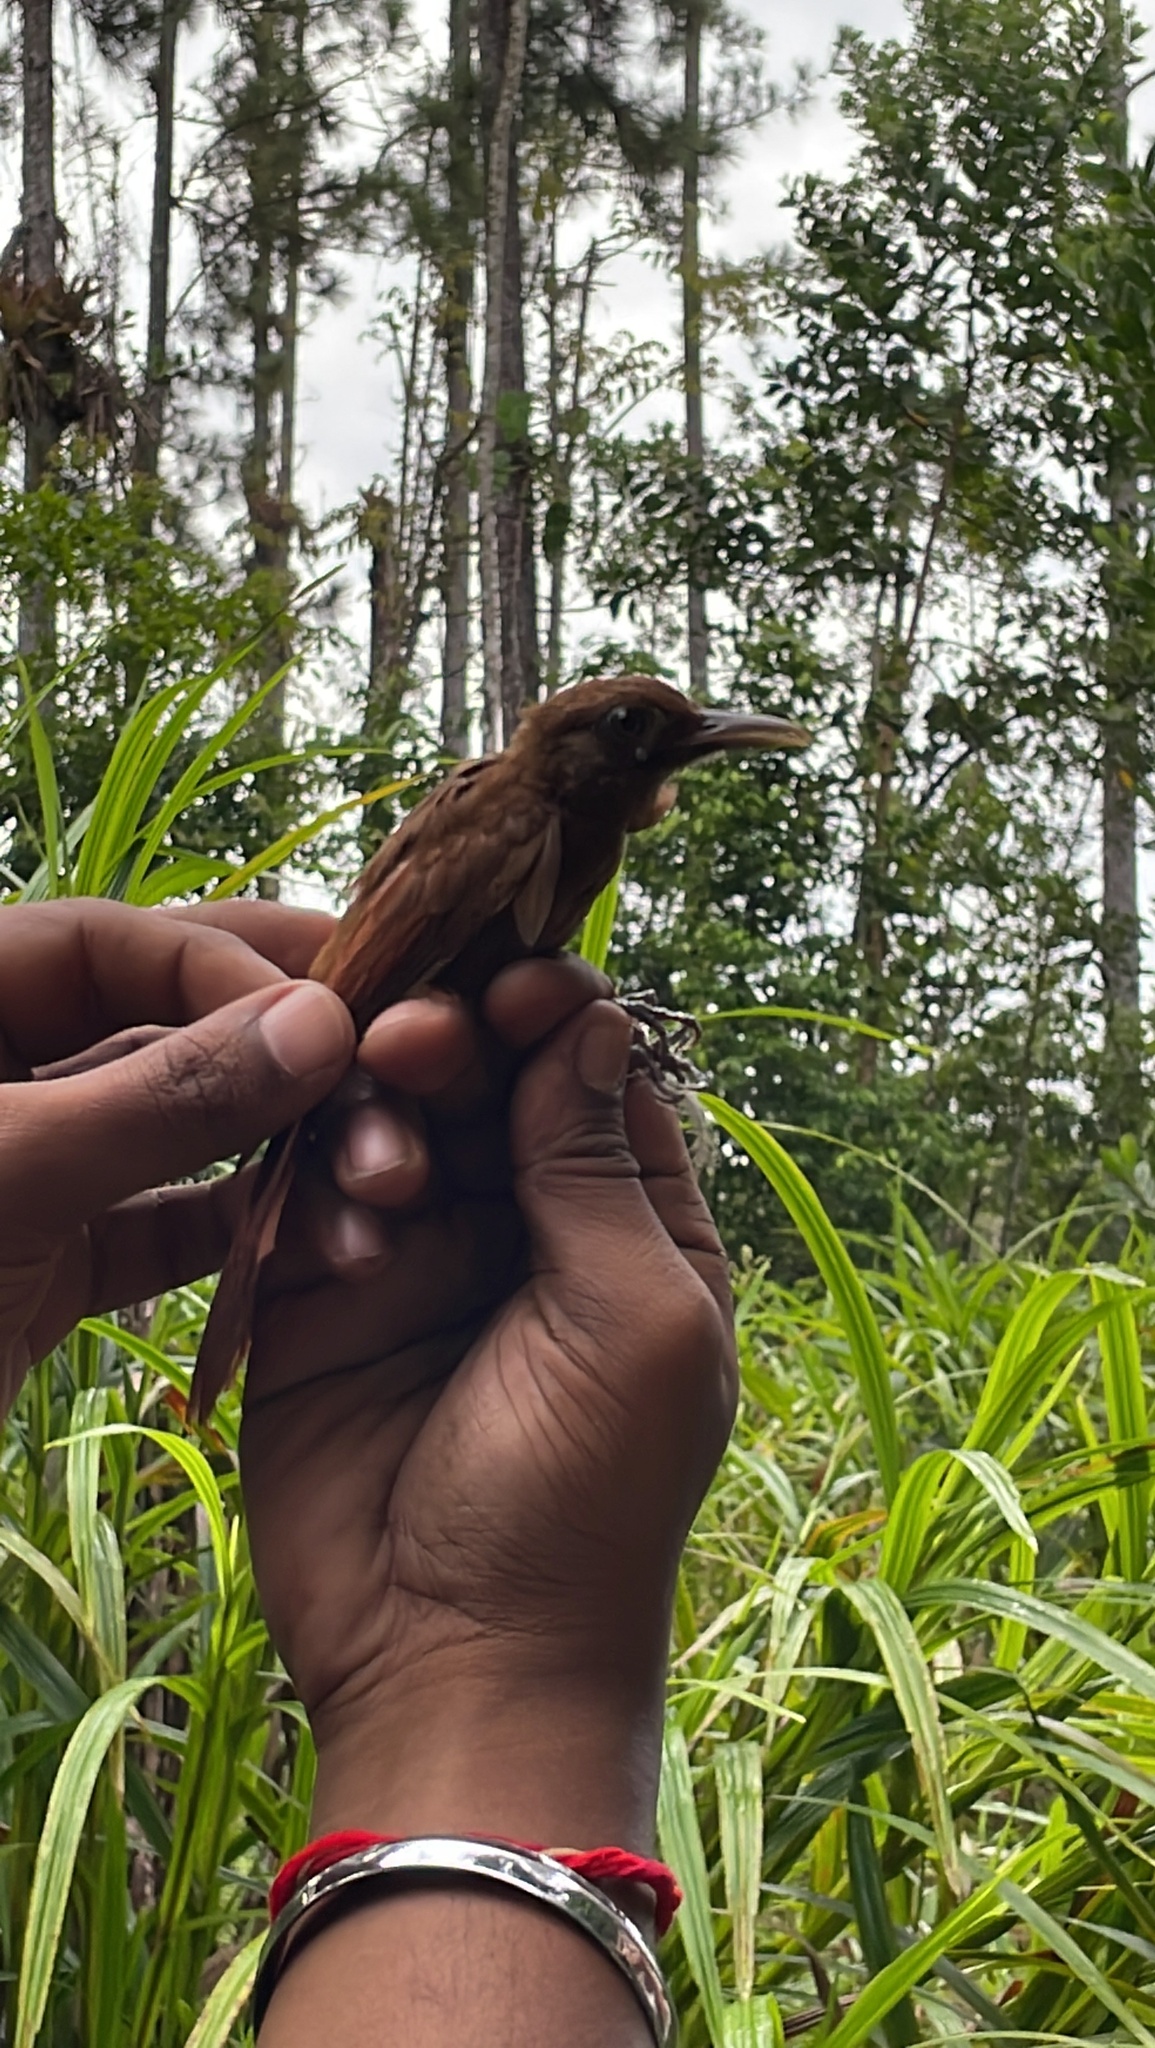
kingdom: Animalia
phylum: Chordata
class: Aves
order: Passeriformes
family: Furnariidae
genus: Xiphorhynchus
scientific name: Xiphorhynchus susurrans
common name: Cocoa woodcreeper
